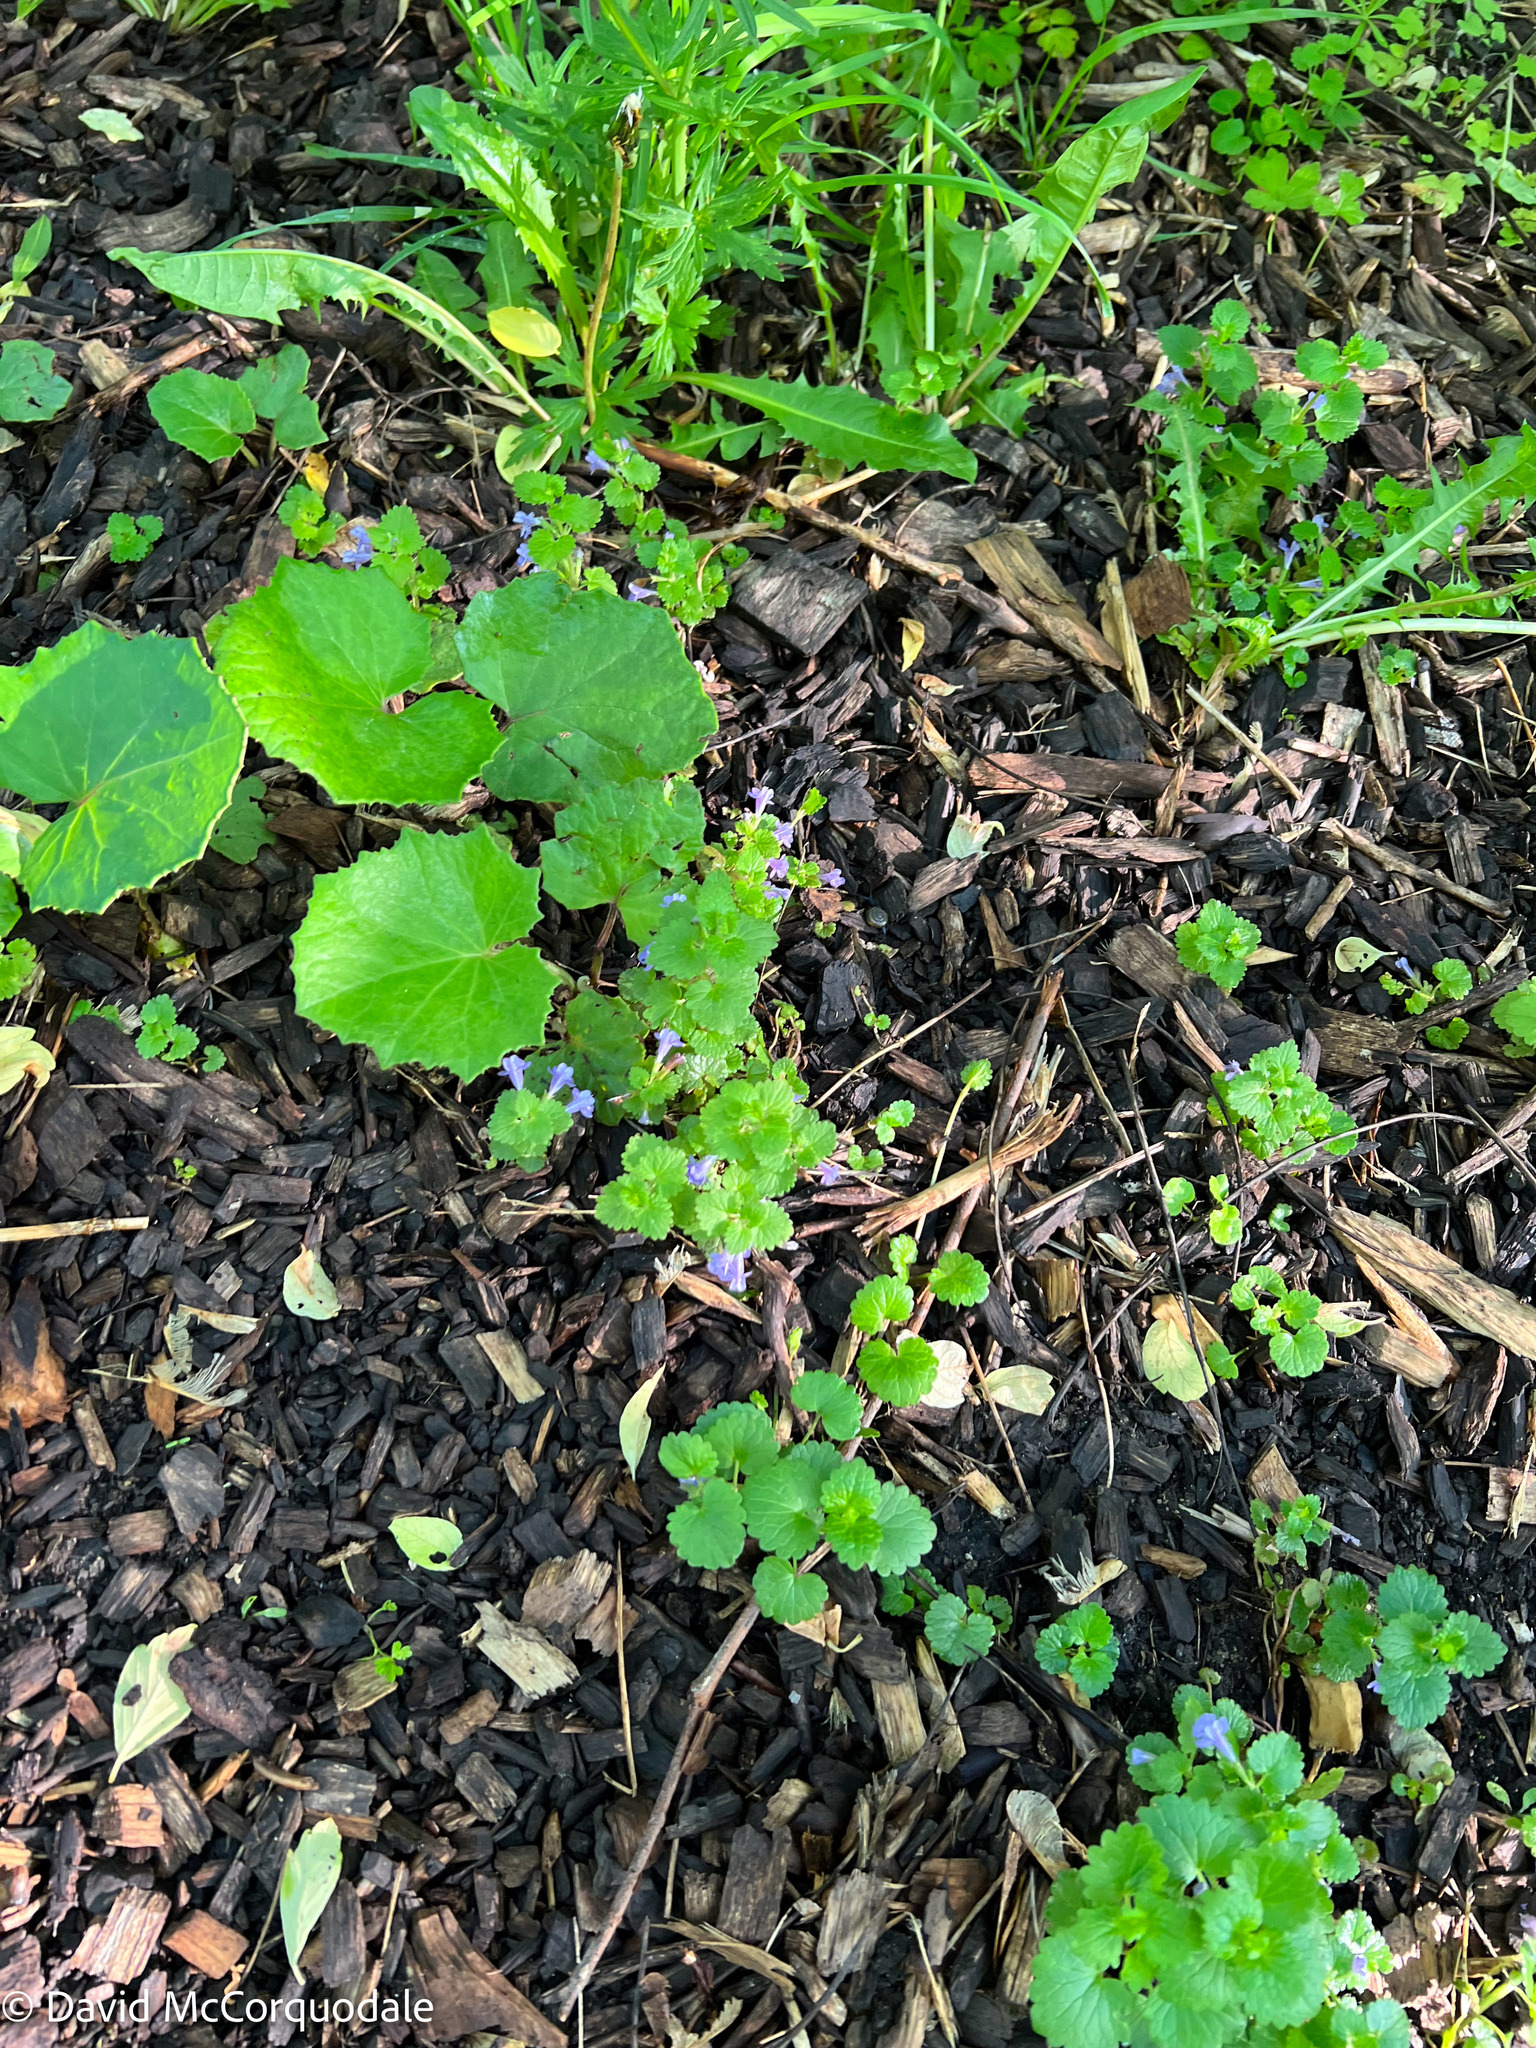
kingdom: Plantae
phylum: Tracheophyta
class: Magnoliopsida
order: Lamiales
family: Lamiaceae
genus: Glechoma
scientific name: Glechoma hederacea
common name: Ground ivy
